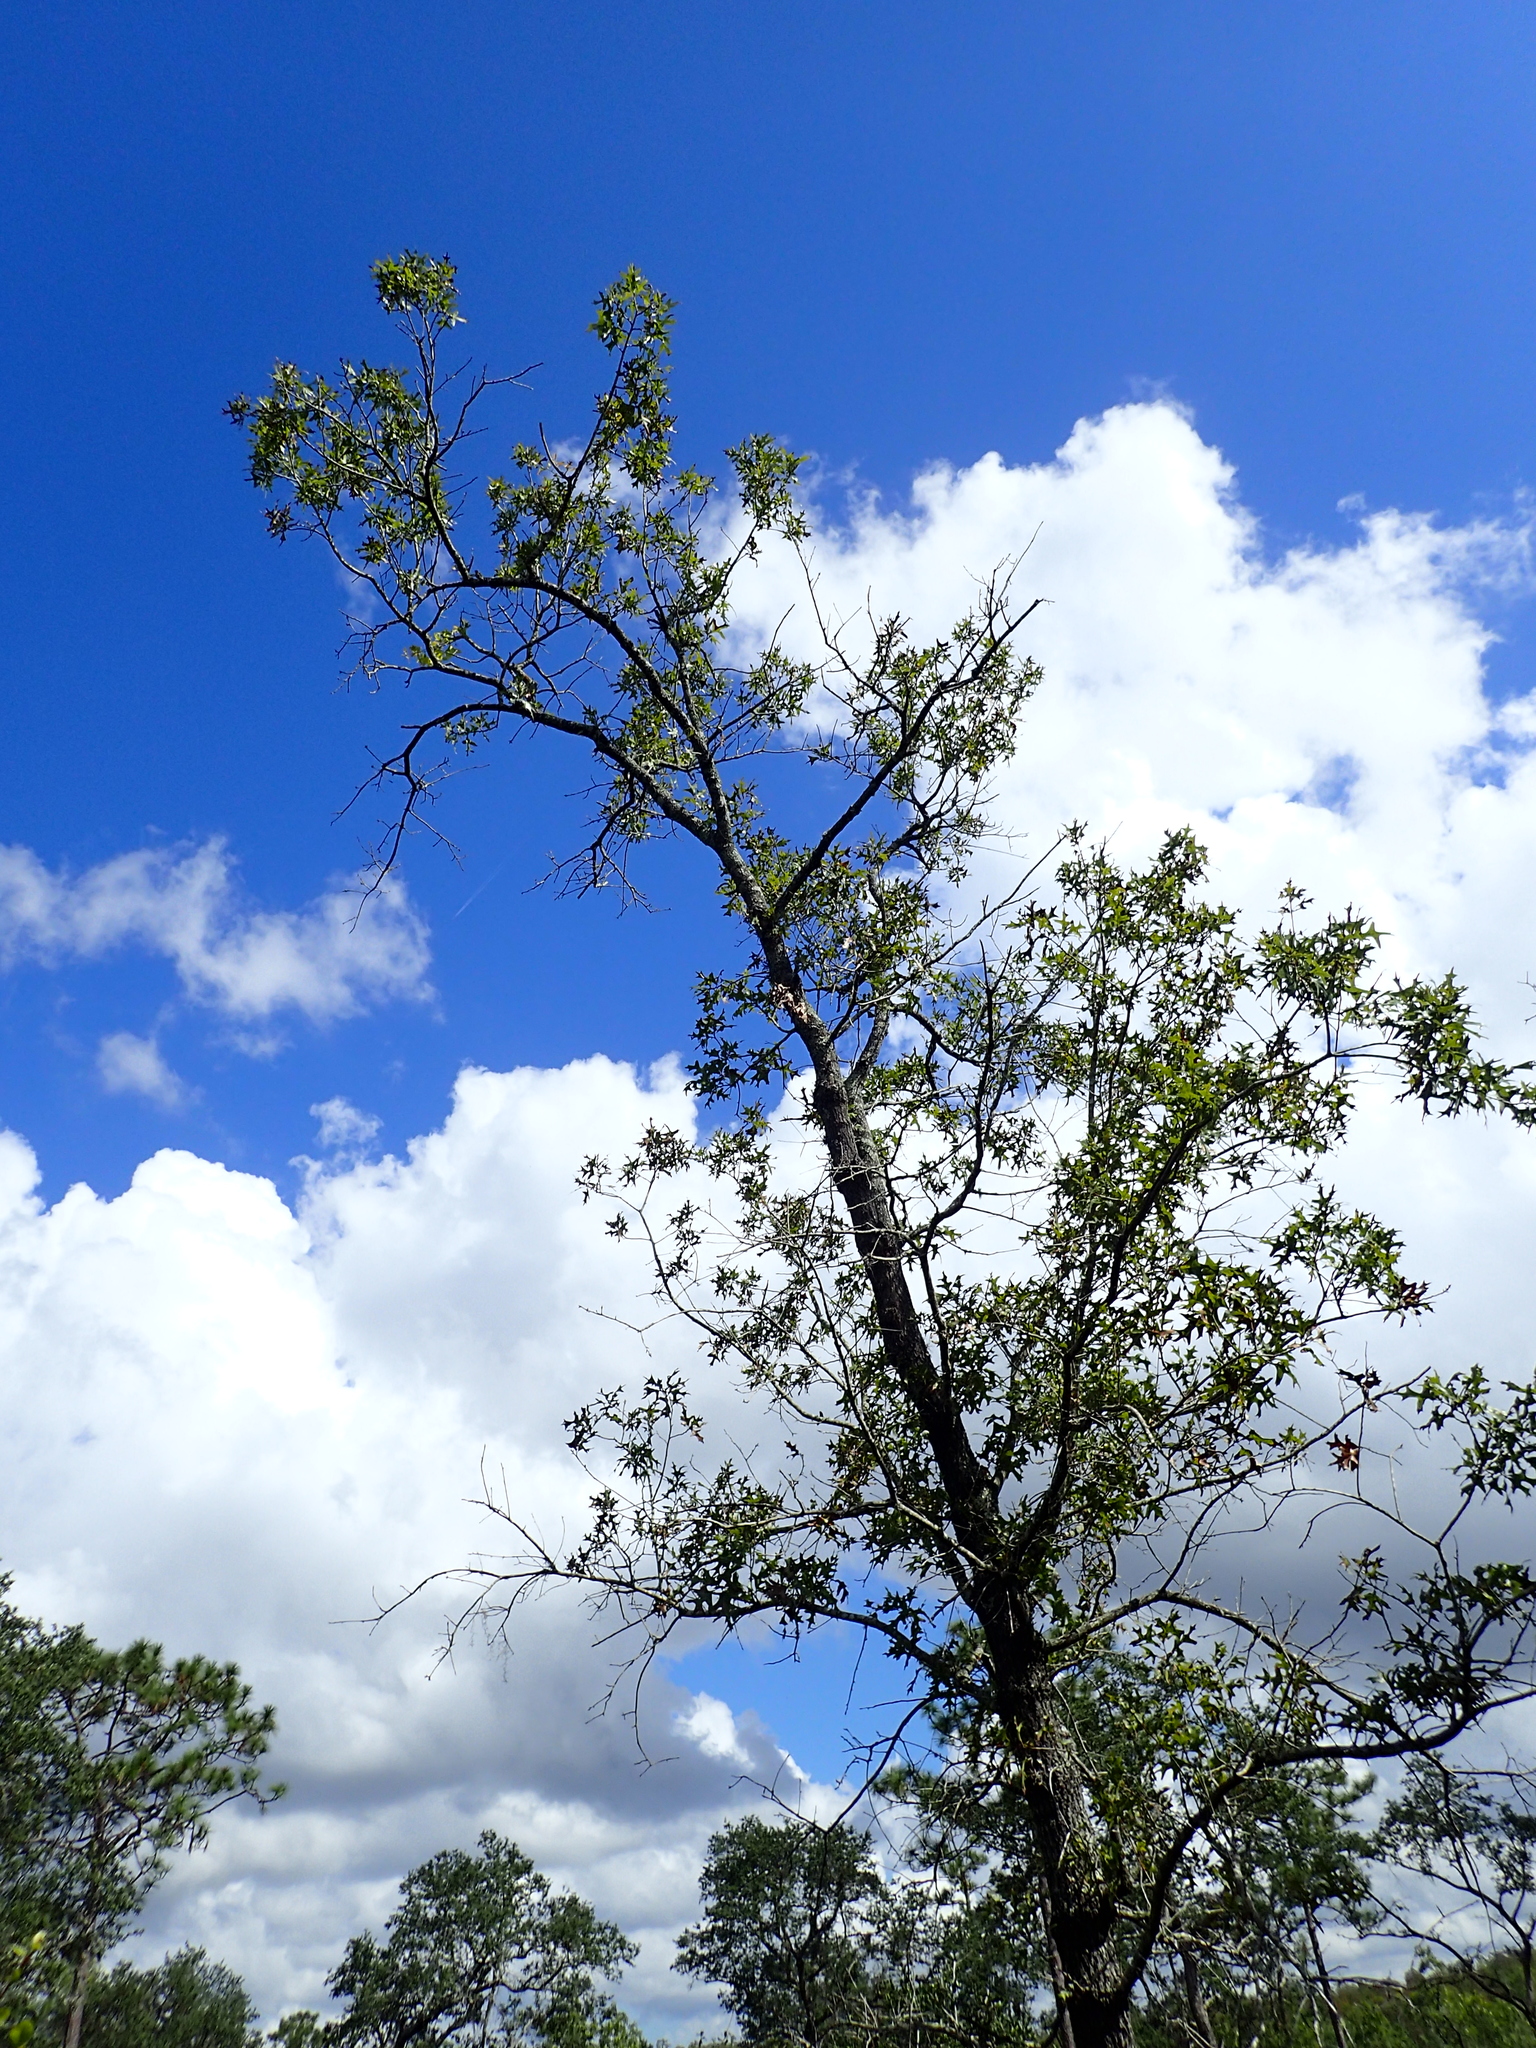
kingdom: Plantae
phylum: Tracheophyta
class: Magnoliopsida
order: Fagales
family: Fagaceae
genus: Quercus
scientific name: Quercus laevis
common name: Turkey oak
